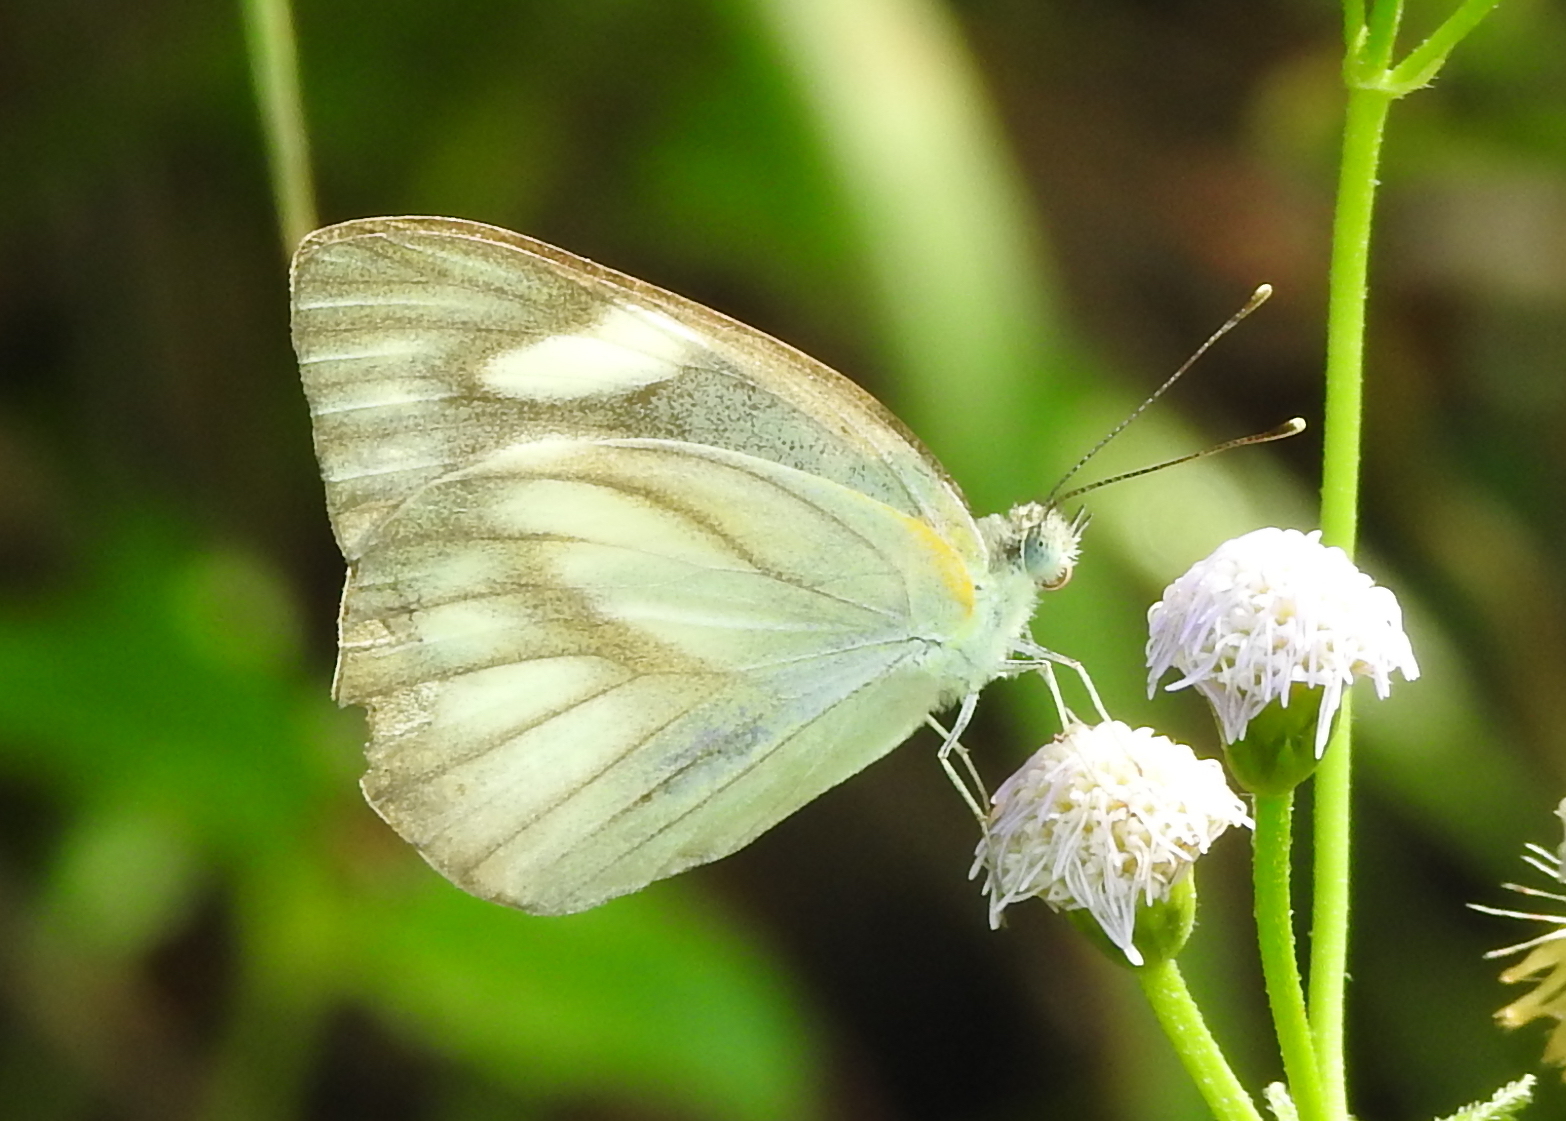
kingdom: Animalia
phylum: Arthropoda
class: Insecta
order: Lepidoptera
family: Pieridae
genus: Appias
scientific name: Appias libythea
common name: Striped albatross
